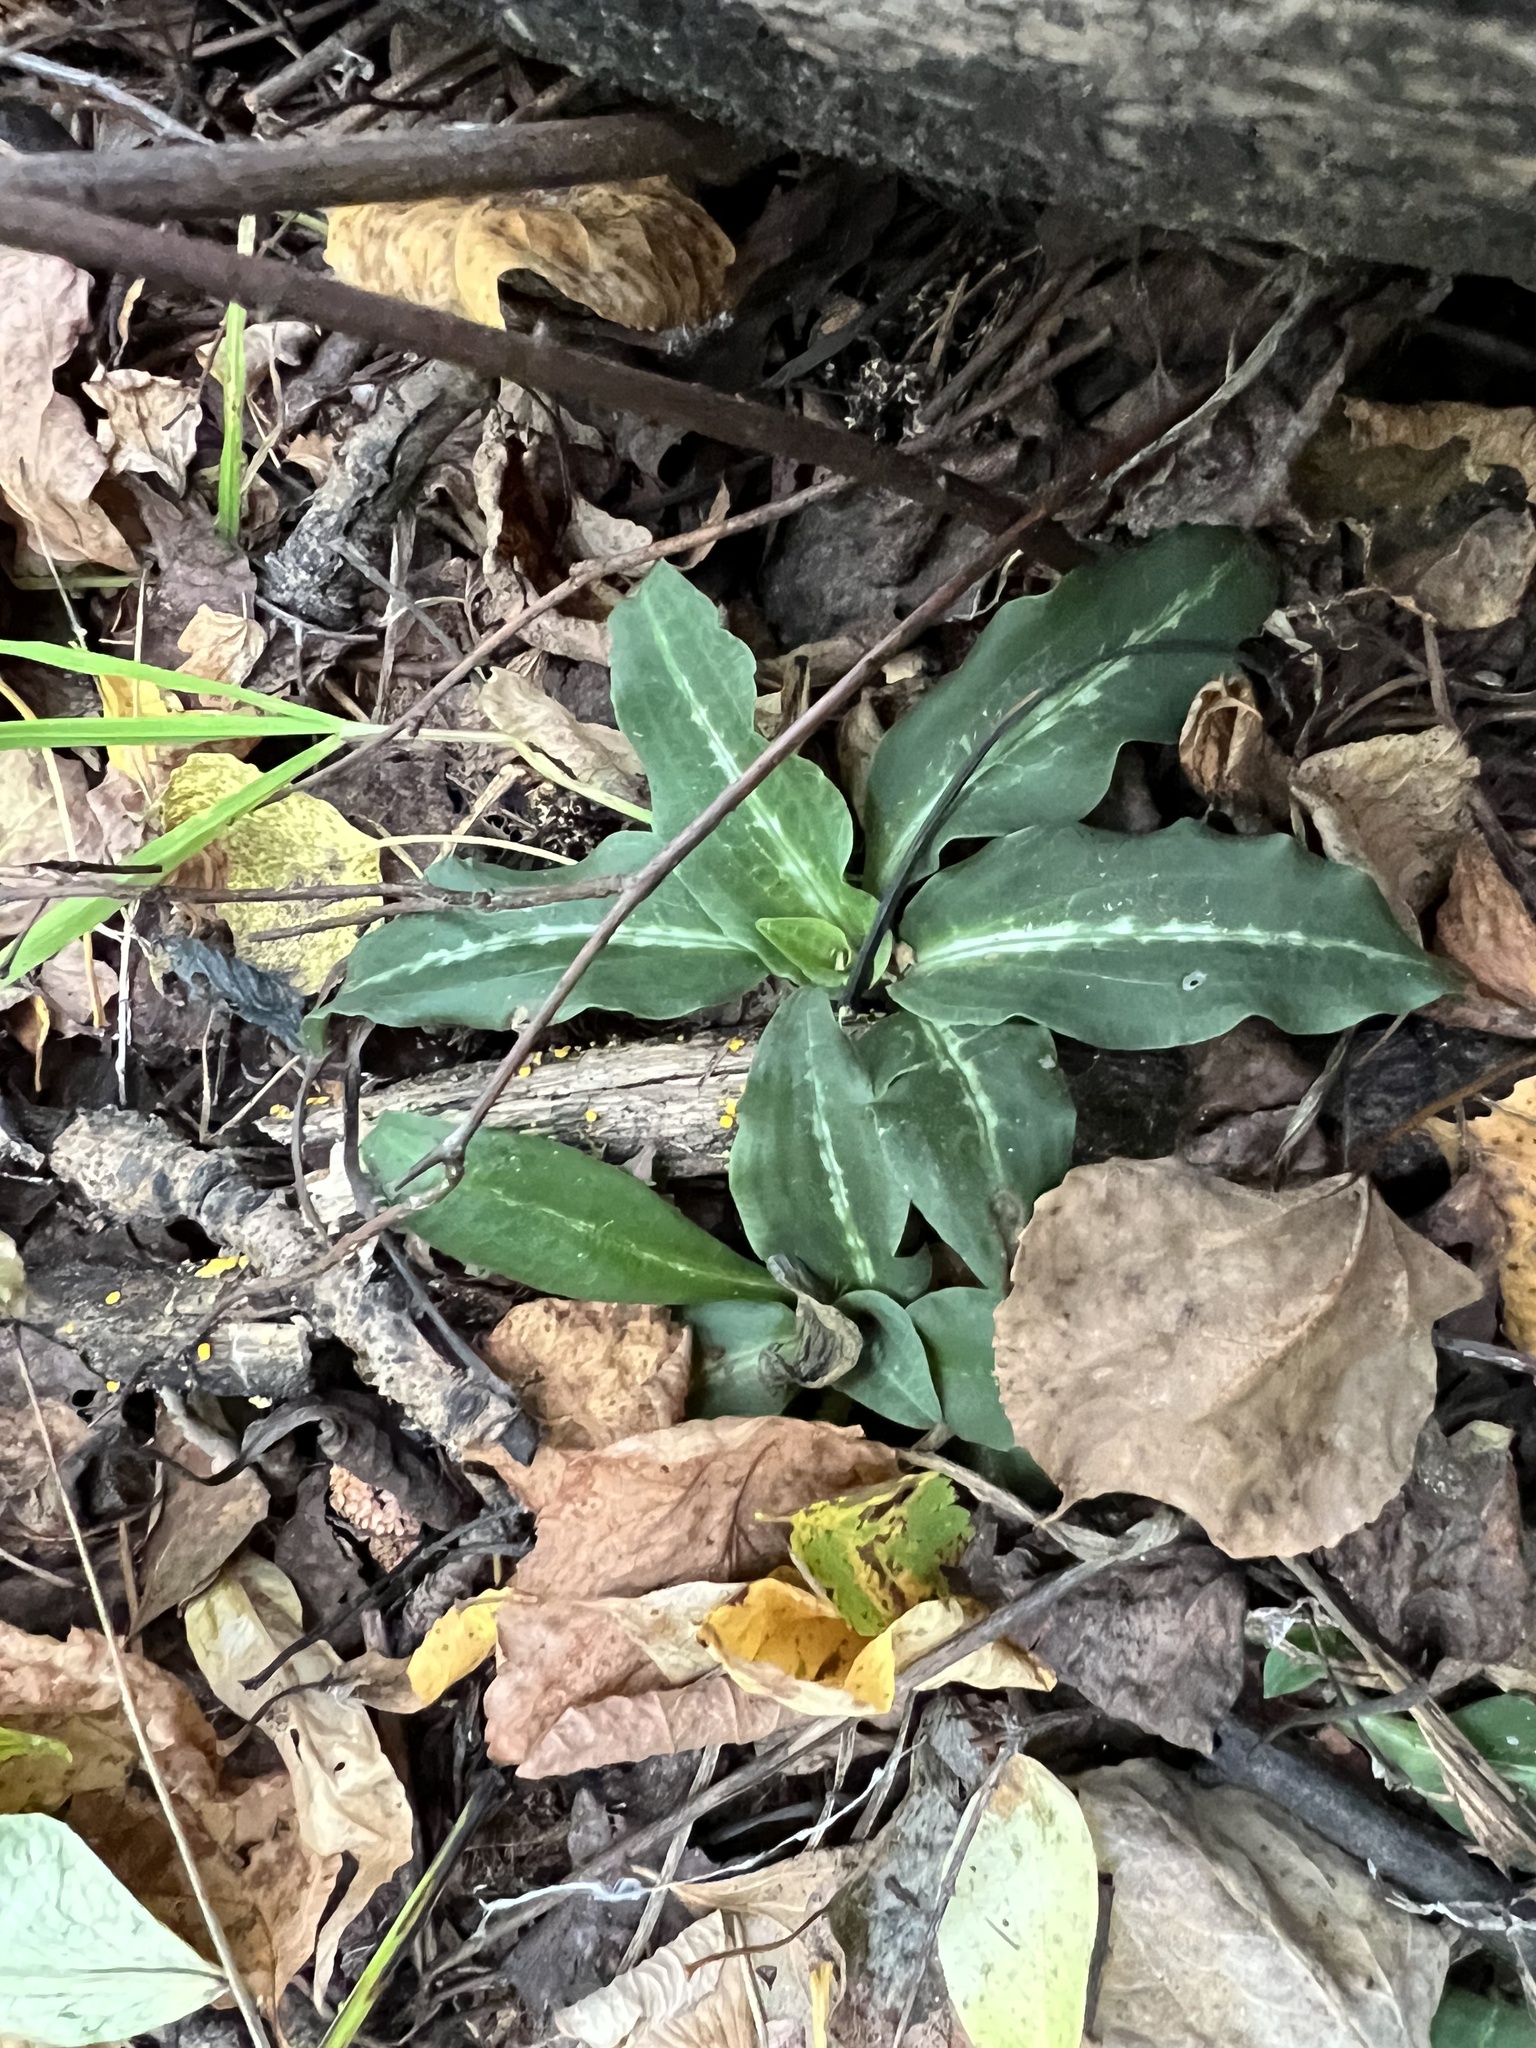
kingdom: Plantae
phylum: Tracheophyta
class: Liliopsida
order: Asparagales
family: Orchidaceae
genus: Goodyera
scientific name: Goodyera oblongifolia
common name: Giant rattlesnake-plantain
